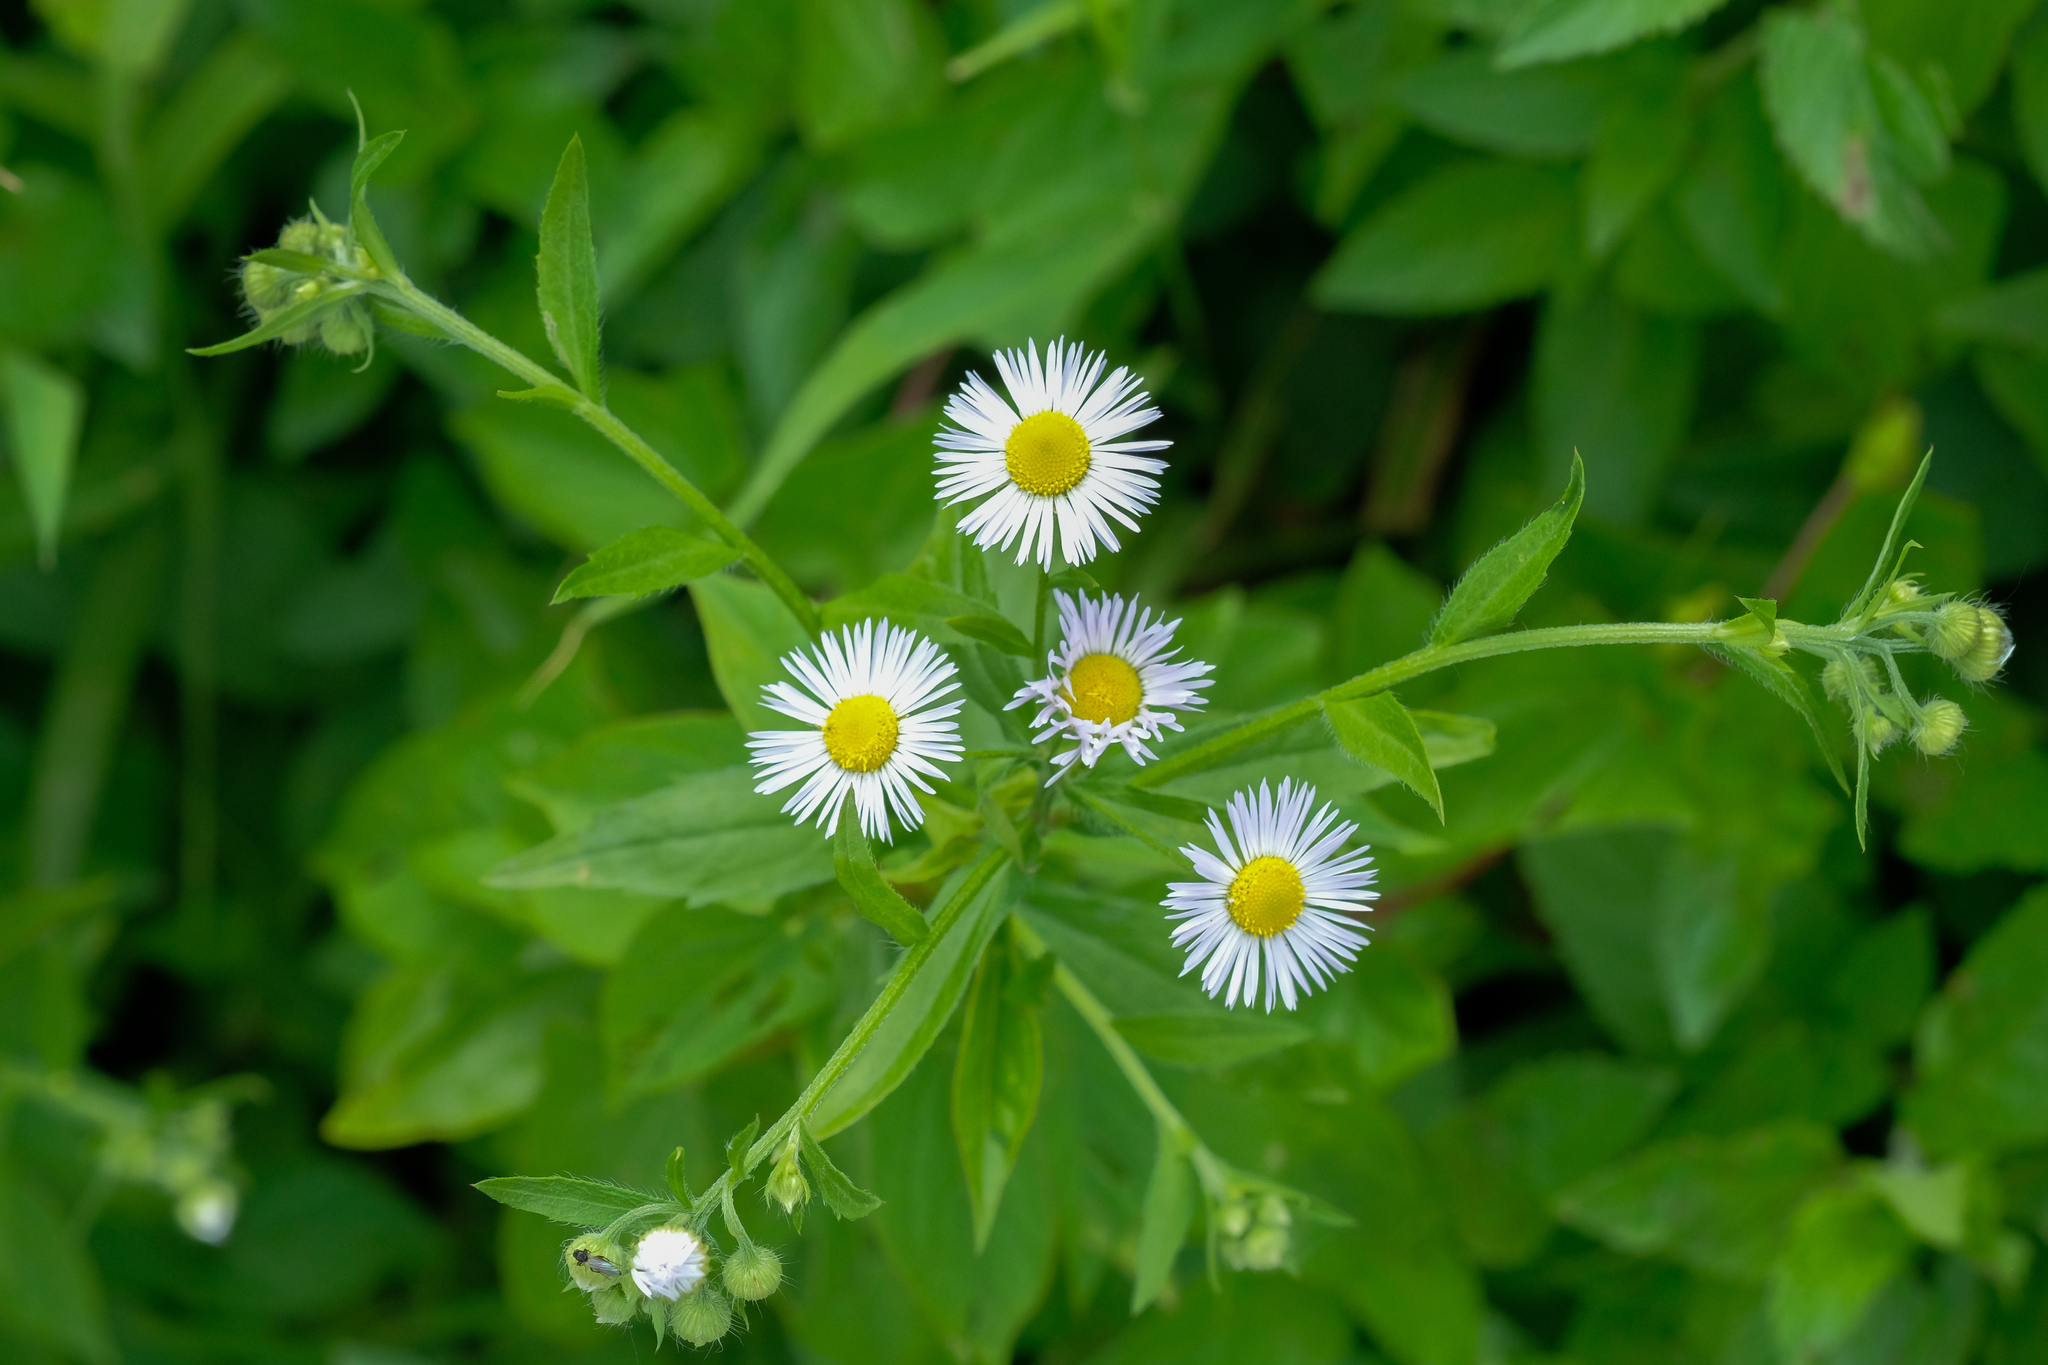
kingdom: Plantae
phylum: Tracheophyta
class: Magnoliopsida
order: Asterales
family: Asteraceae
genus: Erigeron
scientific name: Erigeron annuus
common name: Tall fleabane
